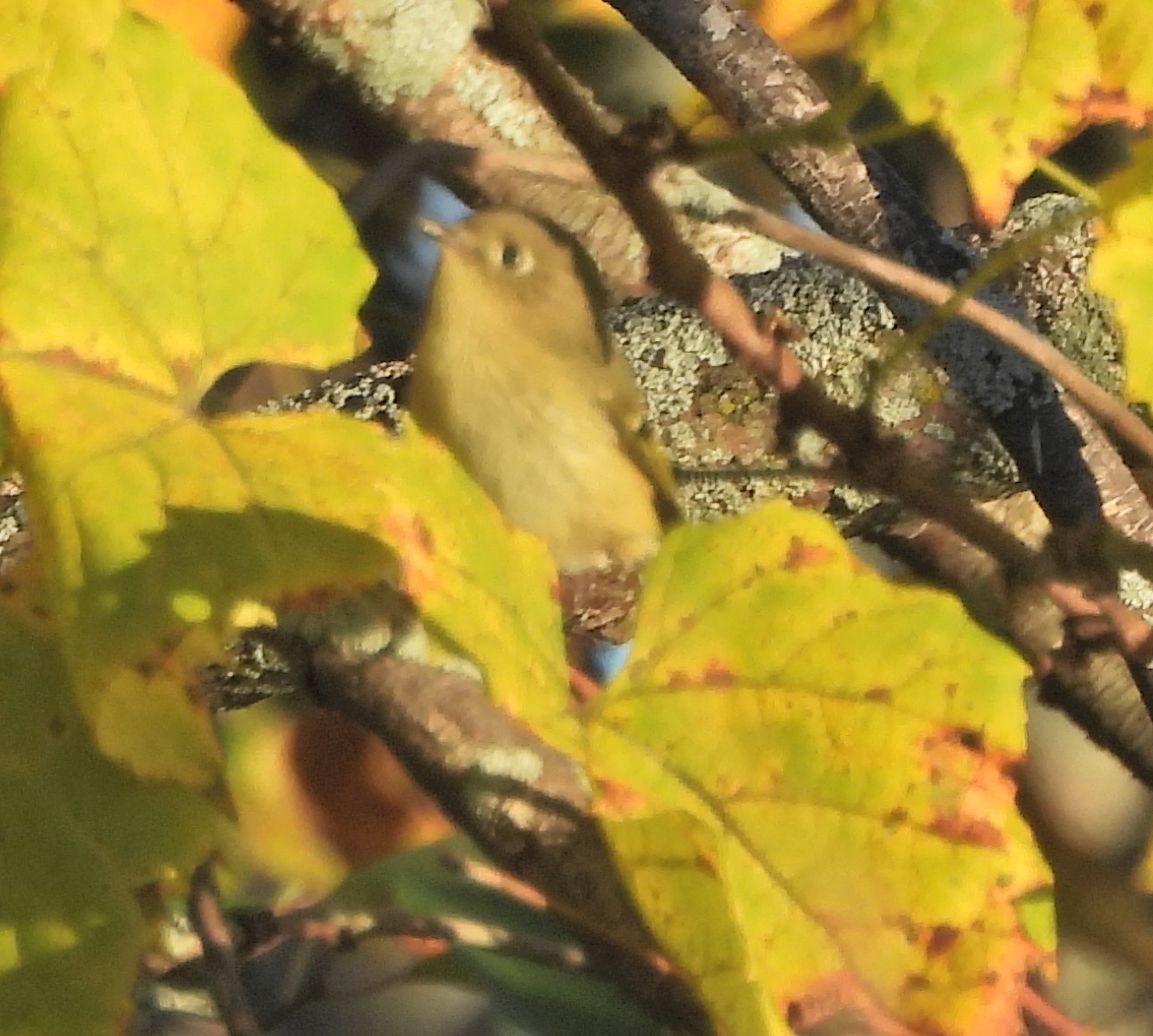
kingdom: Animalia
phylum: Chordata
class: Aves
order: Passeriformes
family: Regulidae
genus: Regulus
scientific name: Regulus calendula
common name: Ruby-crowned kinglet
